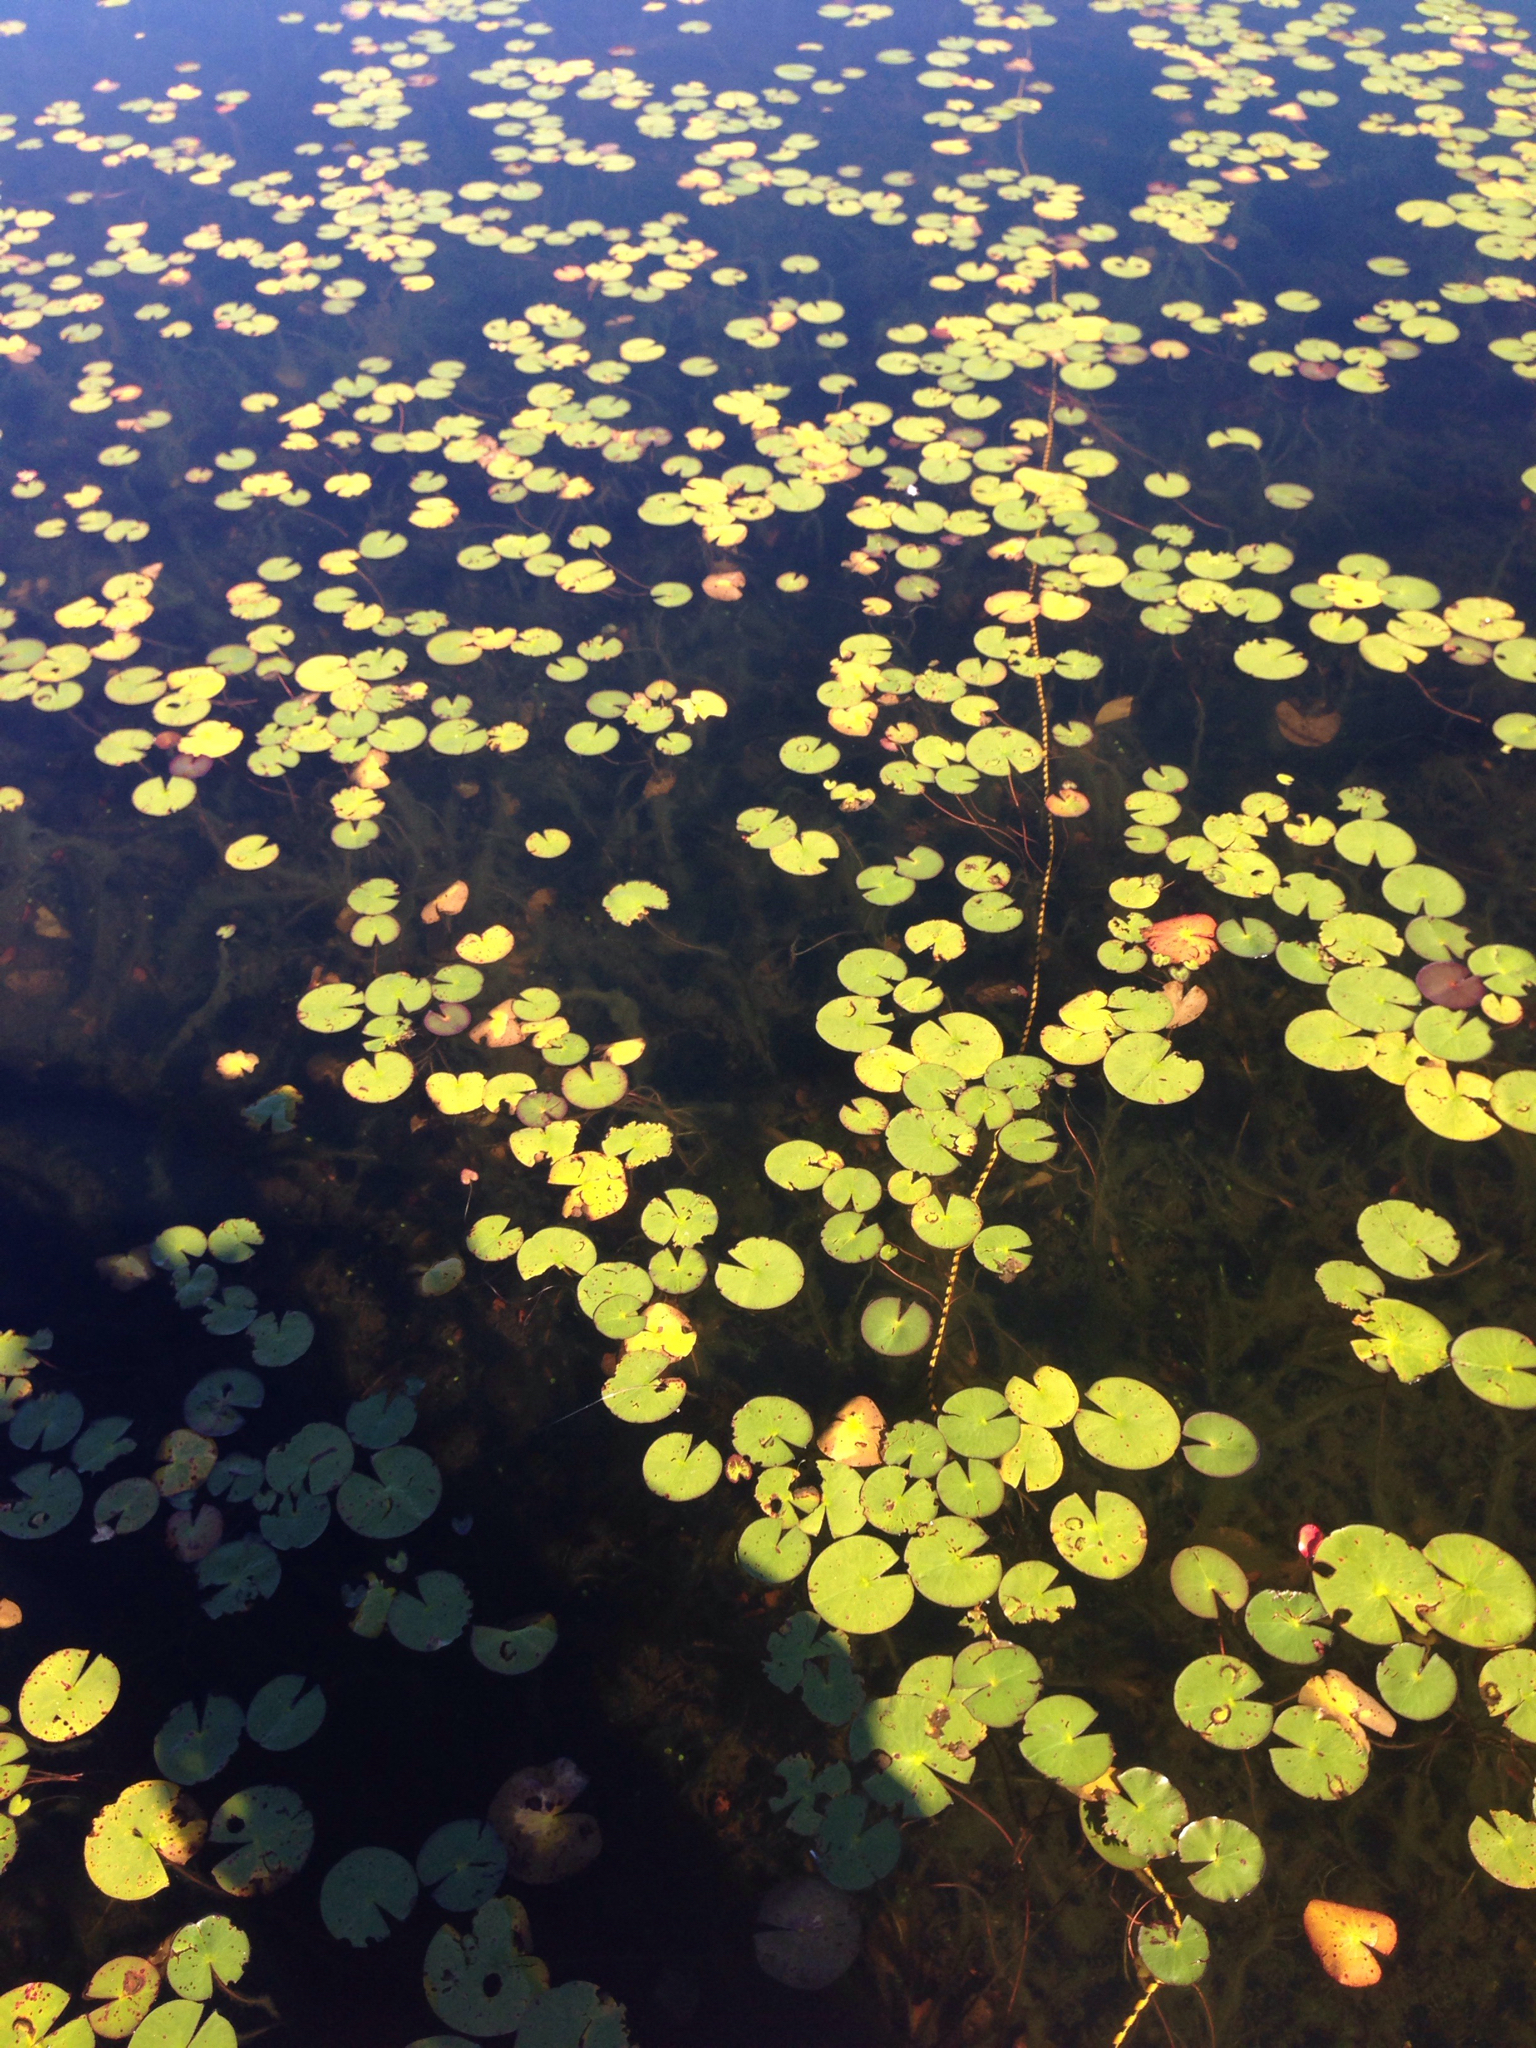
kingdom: Plantae
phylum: Tracheophyta
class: Magnoliopsida
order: Nymphaeales
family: Nymphaeaceae
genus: Nymphaea
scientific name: Nymphaea odorata
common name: Fragrant water-lily
